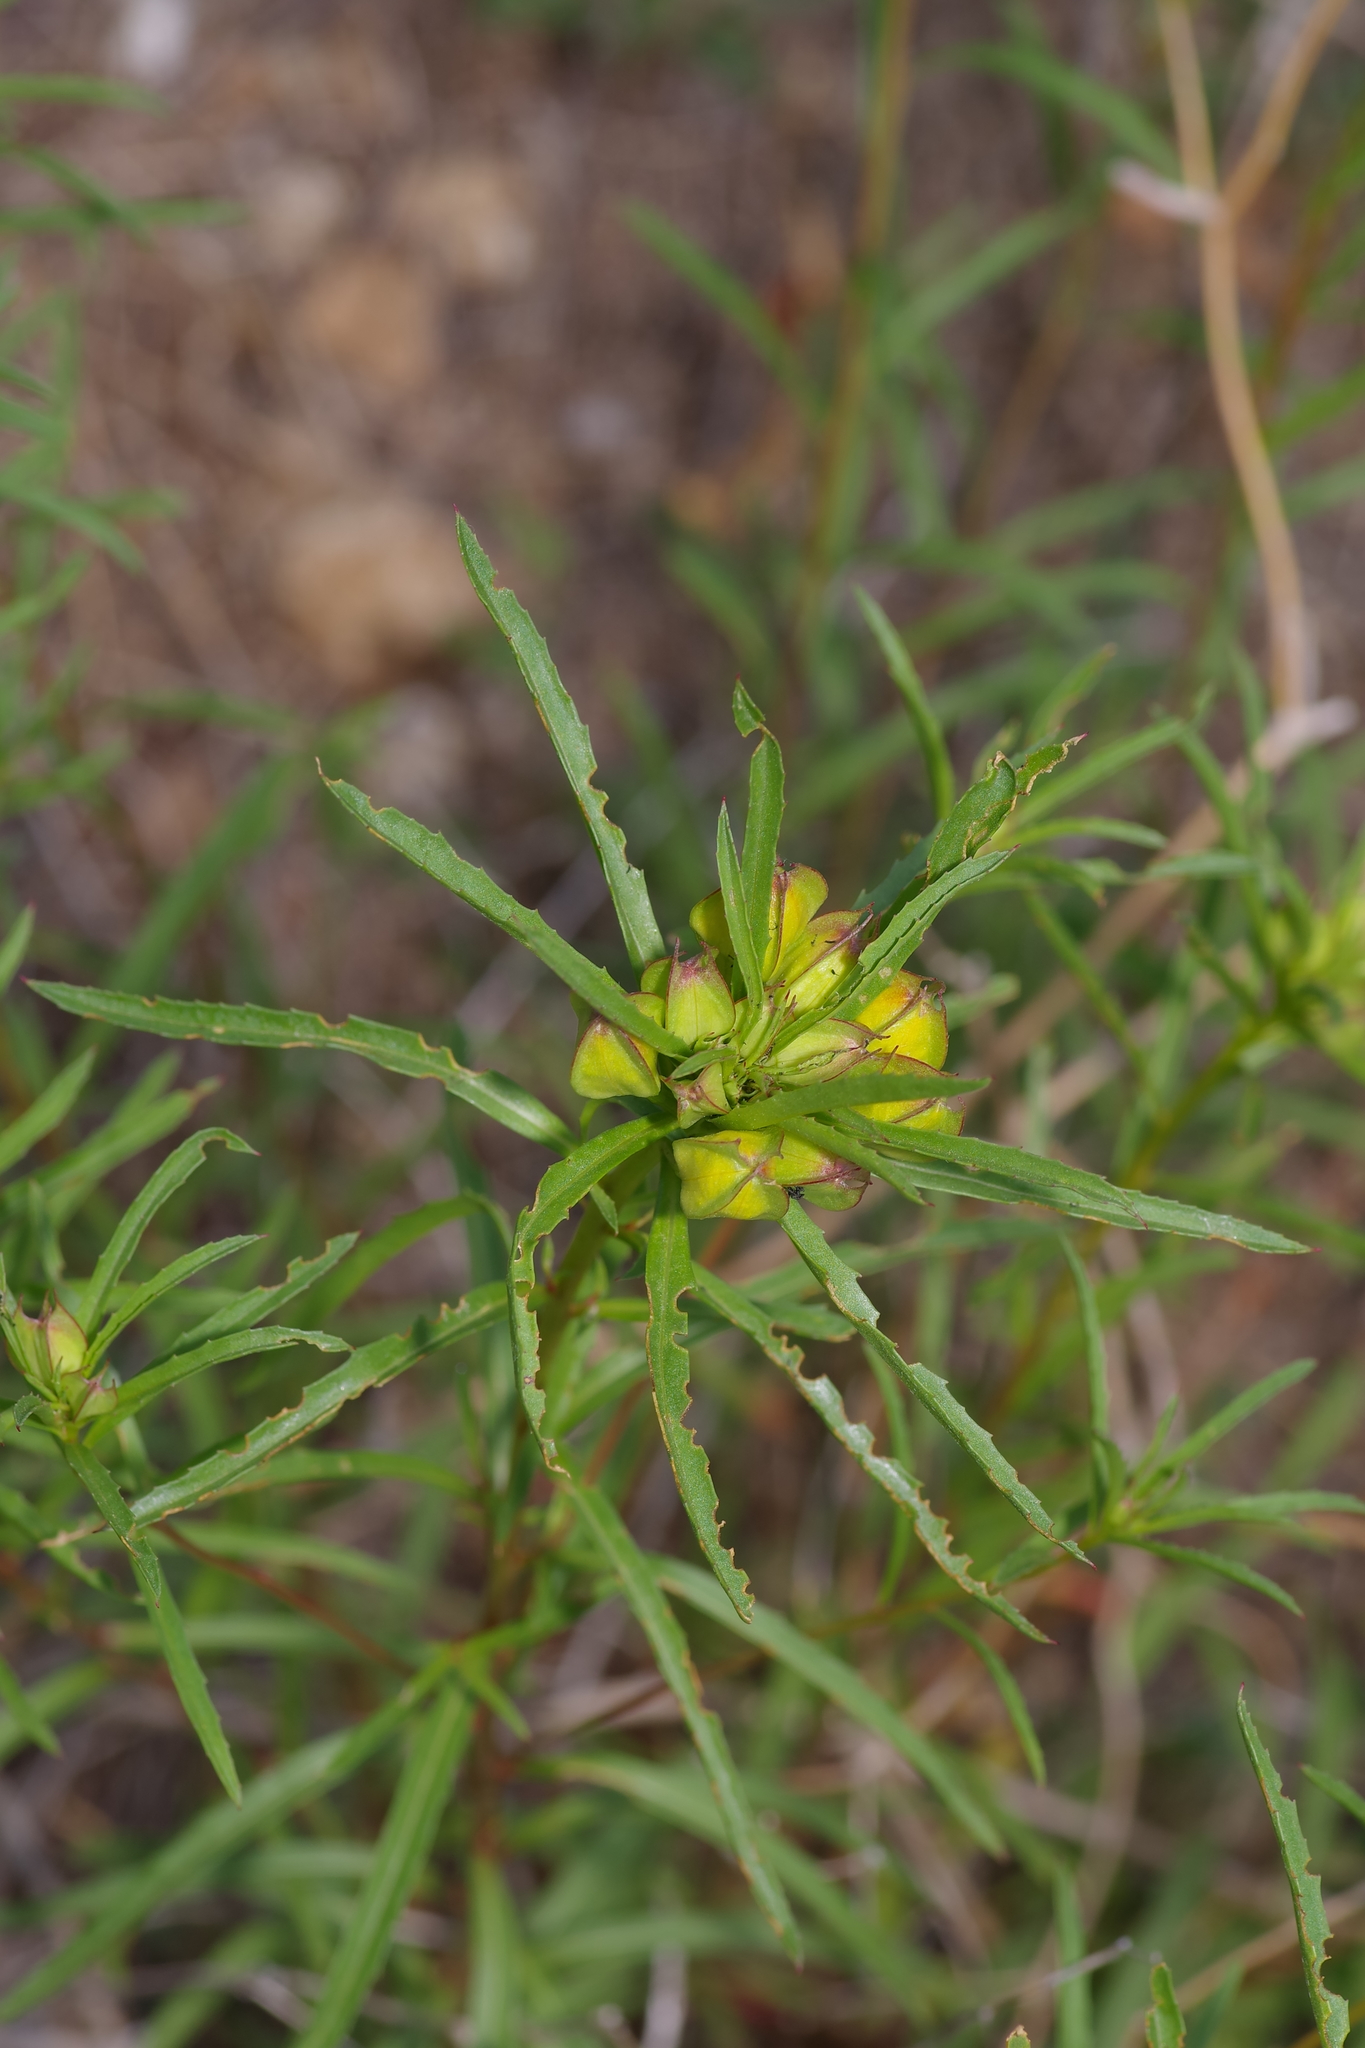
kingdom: Plantae
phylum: Tracheophyta
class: Magnoliopsida
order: Myrtales
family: Onagraceae
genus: Oenothera
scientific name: Oenothera
